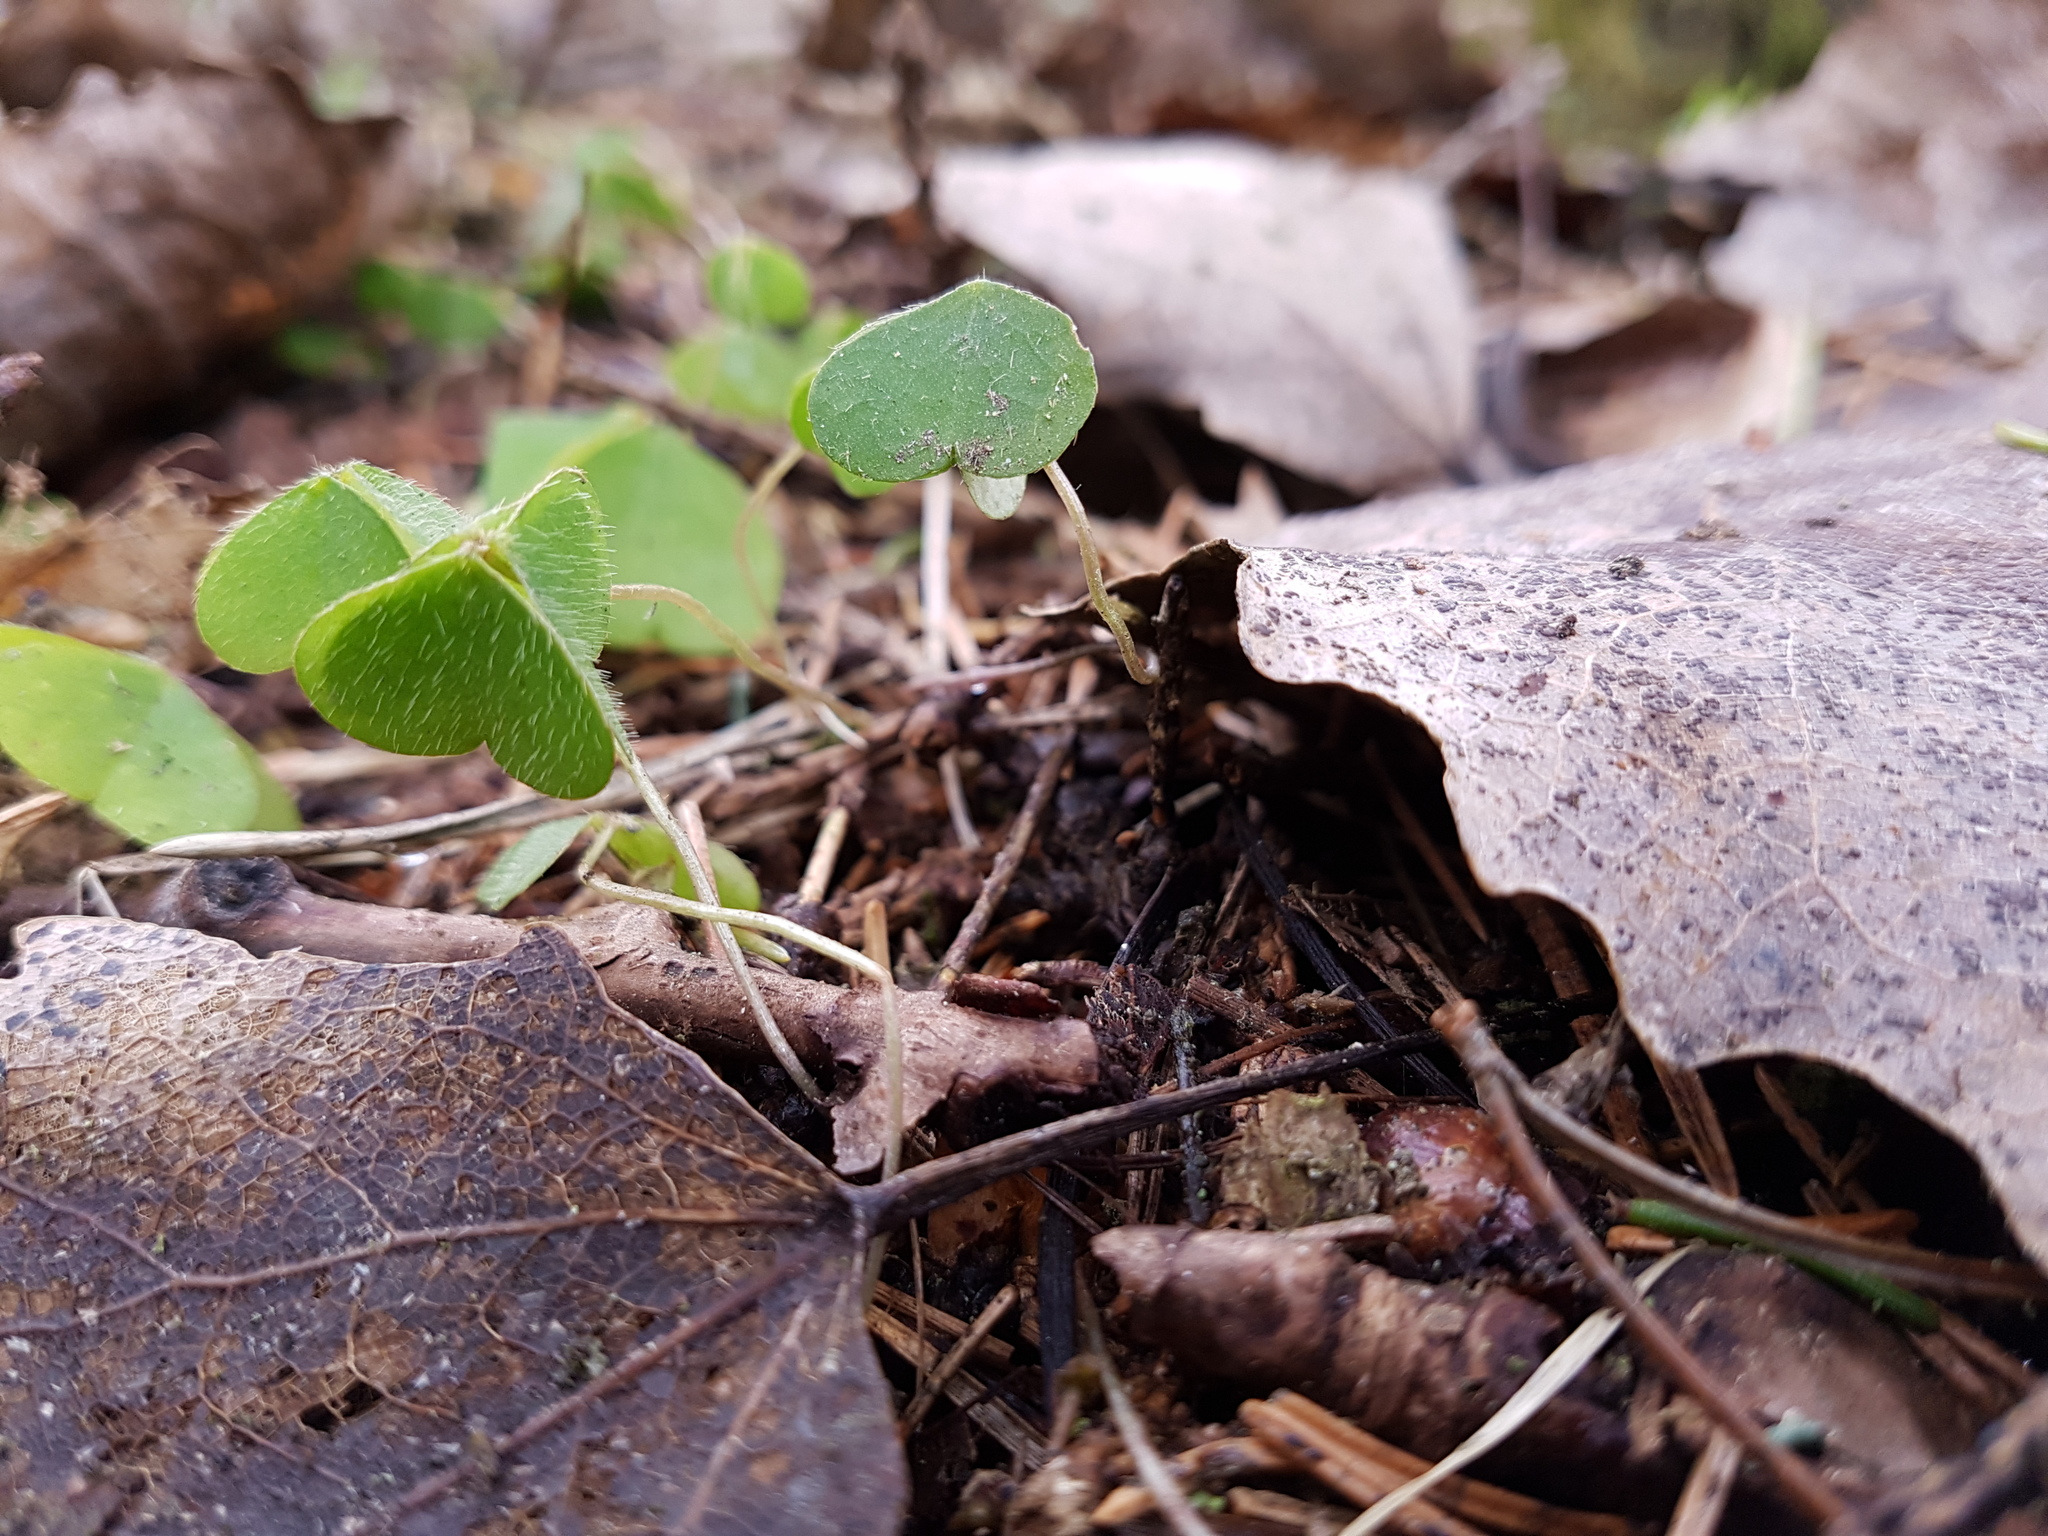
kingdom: Plantae
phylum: Tracheophyta
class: Magnoliopsida
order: Oxalidales
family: Oxalidaceae
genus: Oxalis
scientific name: Oxalis acetosella
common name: Wood-sorrel
